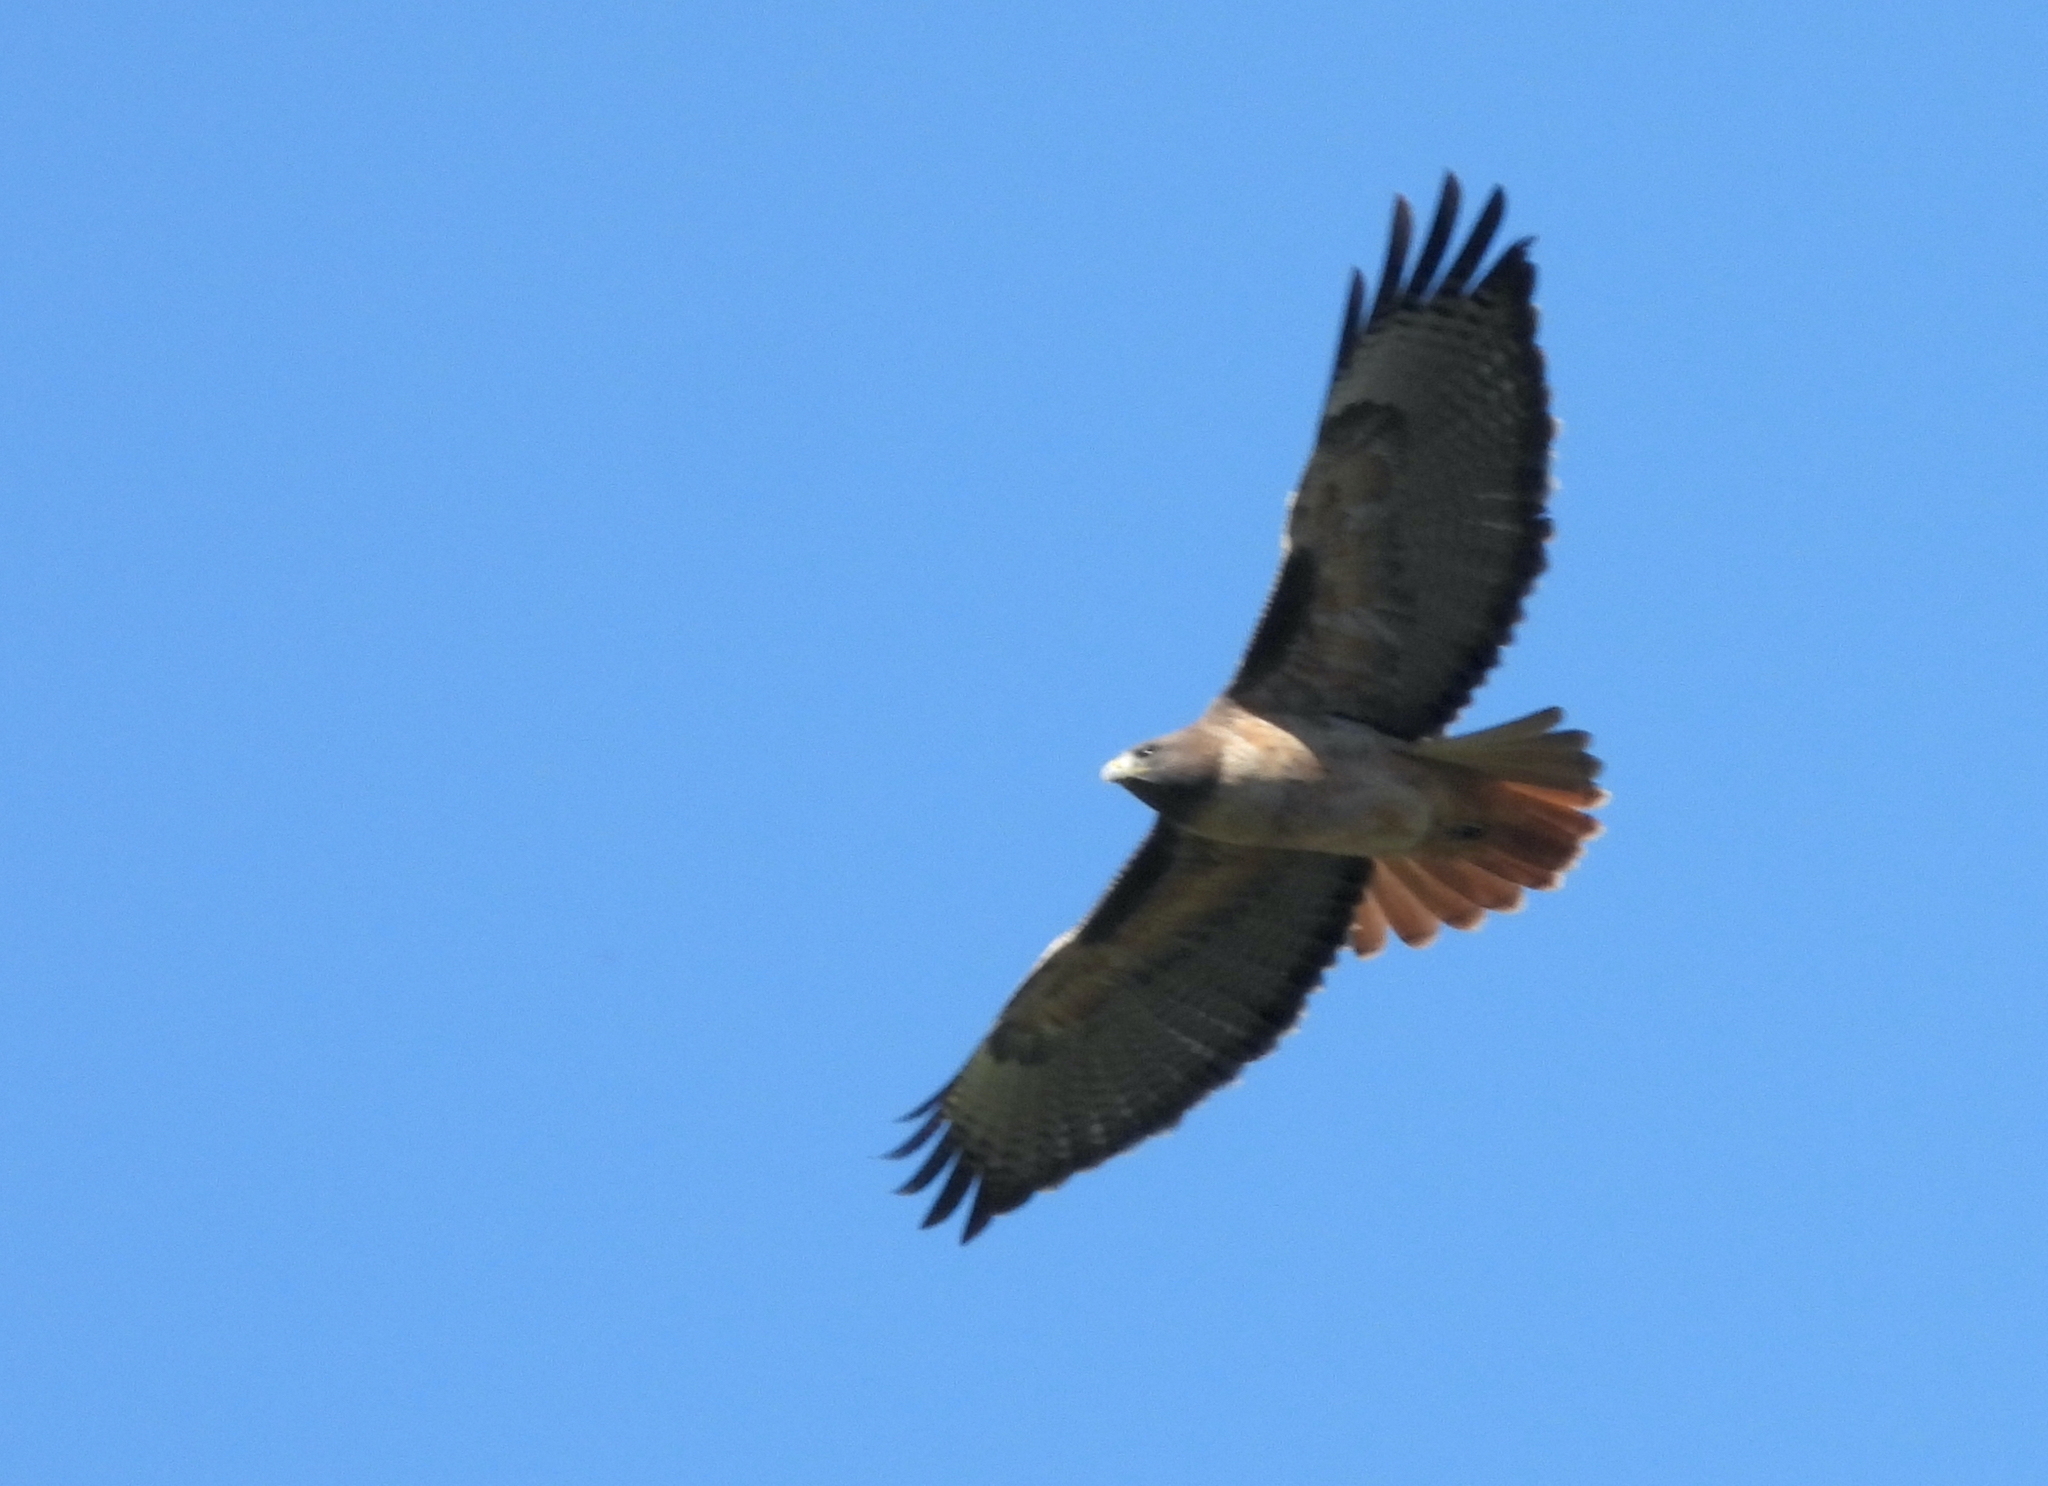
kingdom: Animalia
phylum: Chordata
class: Aves
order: Accipitriformes
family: Accipitridae
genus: Buteo
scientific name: Buteo jamaicensis
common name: Red-tailed hawk
